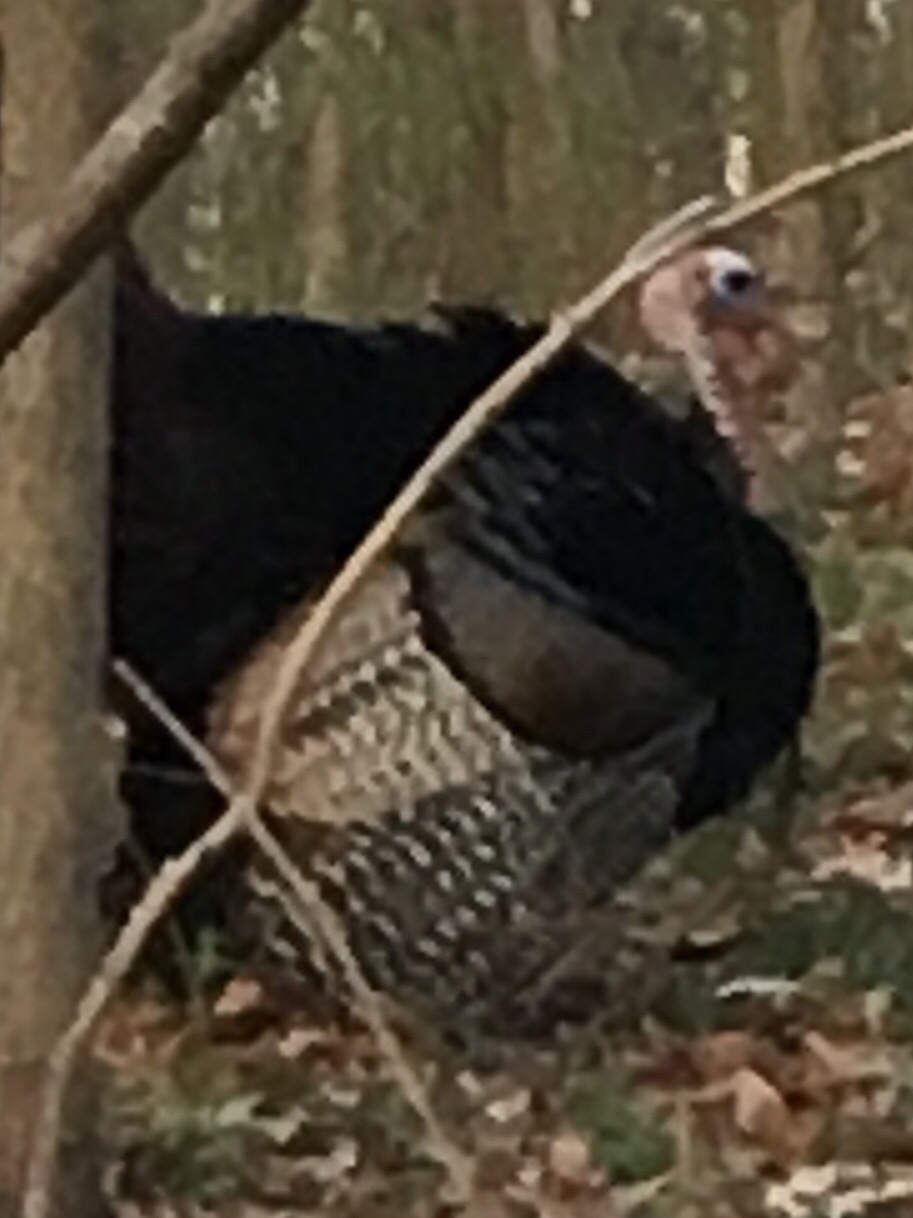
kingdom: Animalia
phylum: Chordata
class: Aves
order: Galliformes
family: Phasianidae
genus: Meleagris
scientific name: Meleagris gallopavo
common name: Wild turkey
